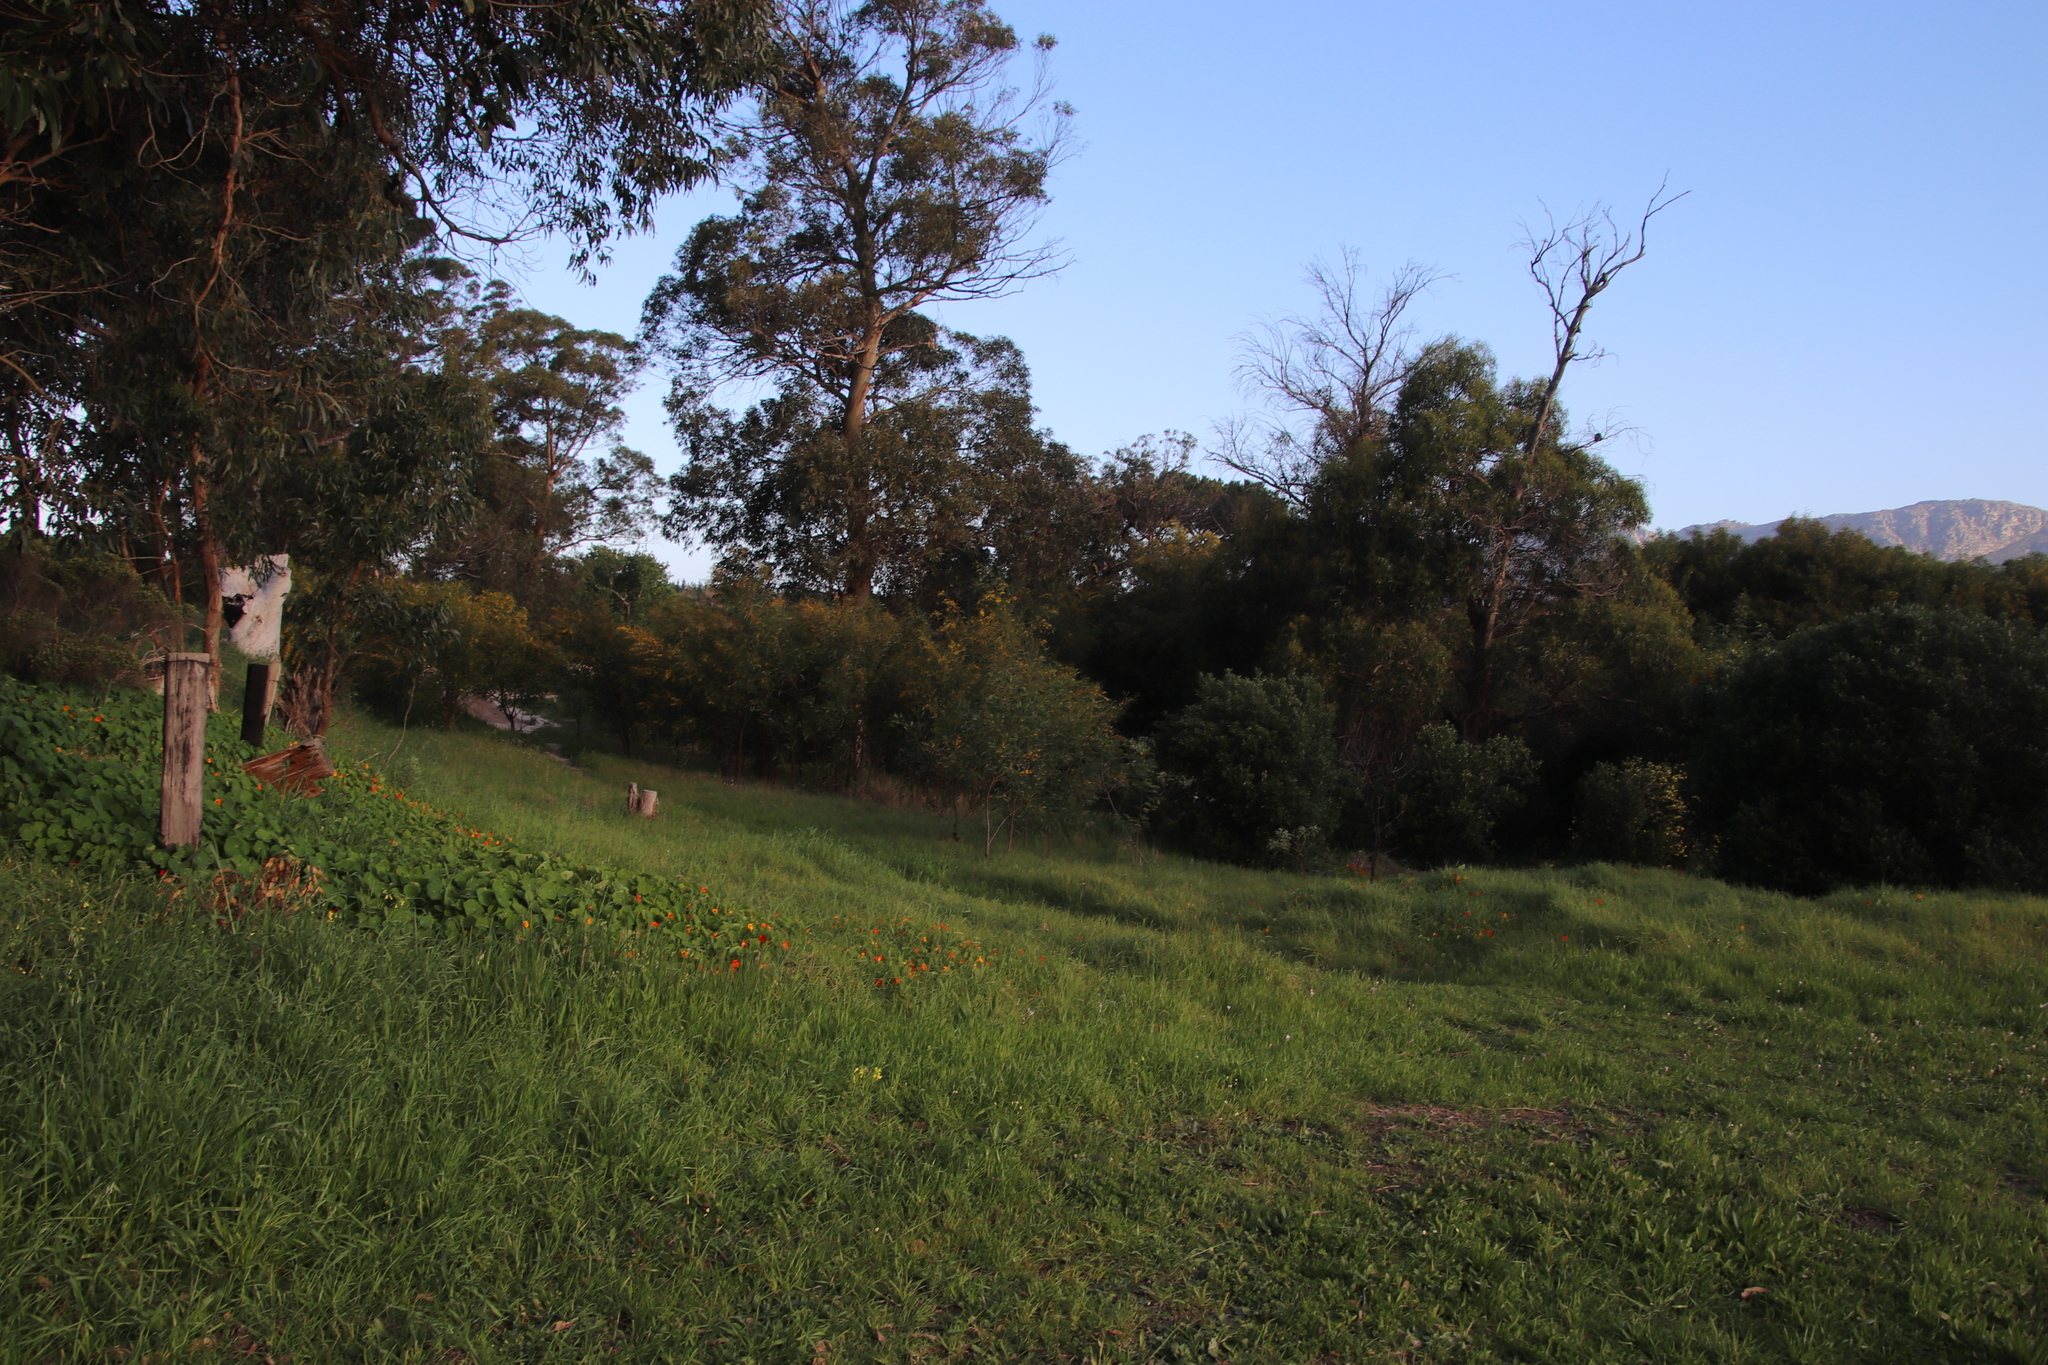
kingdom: Plantae
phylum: Tracheophyta
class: Magnoliopsida
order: Brassicales
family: Tropaeolaceae
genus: Tropaeolum
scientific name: Tropaeolum majus
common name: Nasturtium
